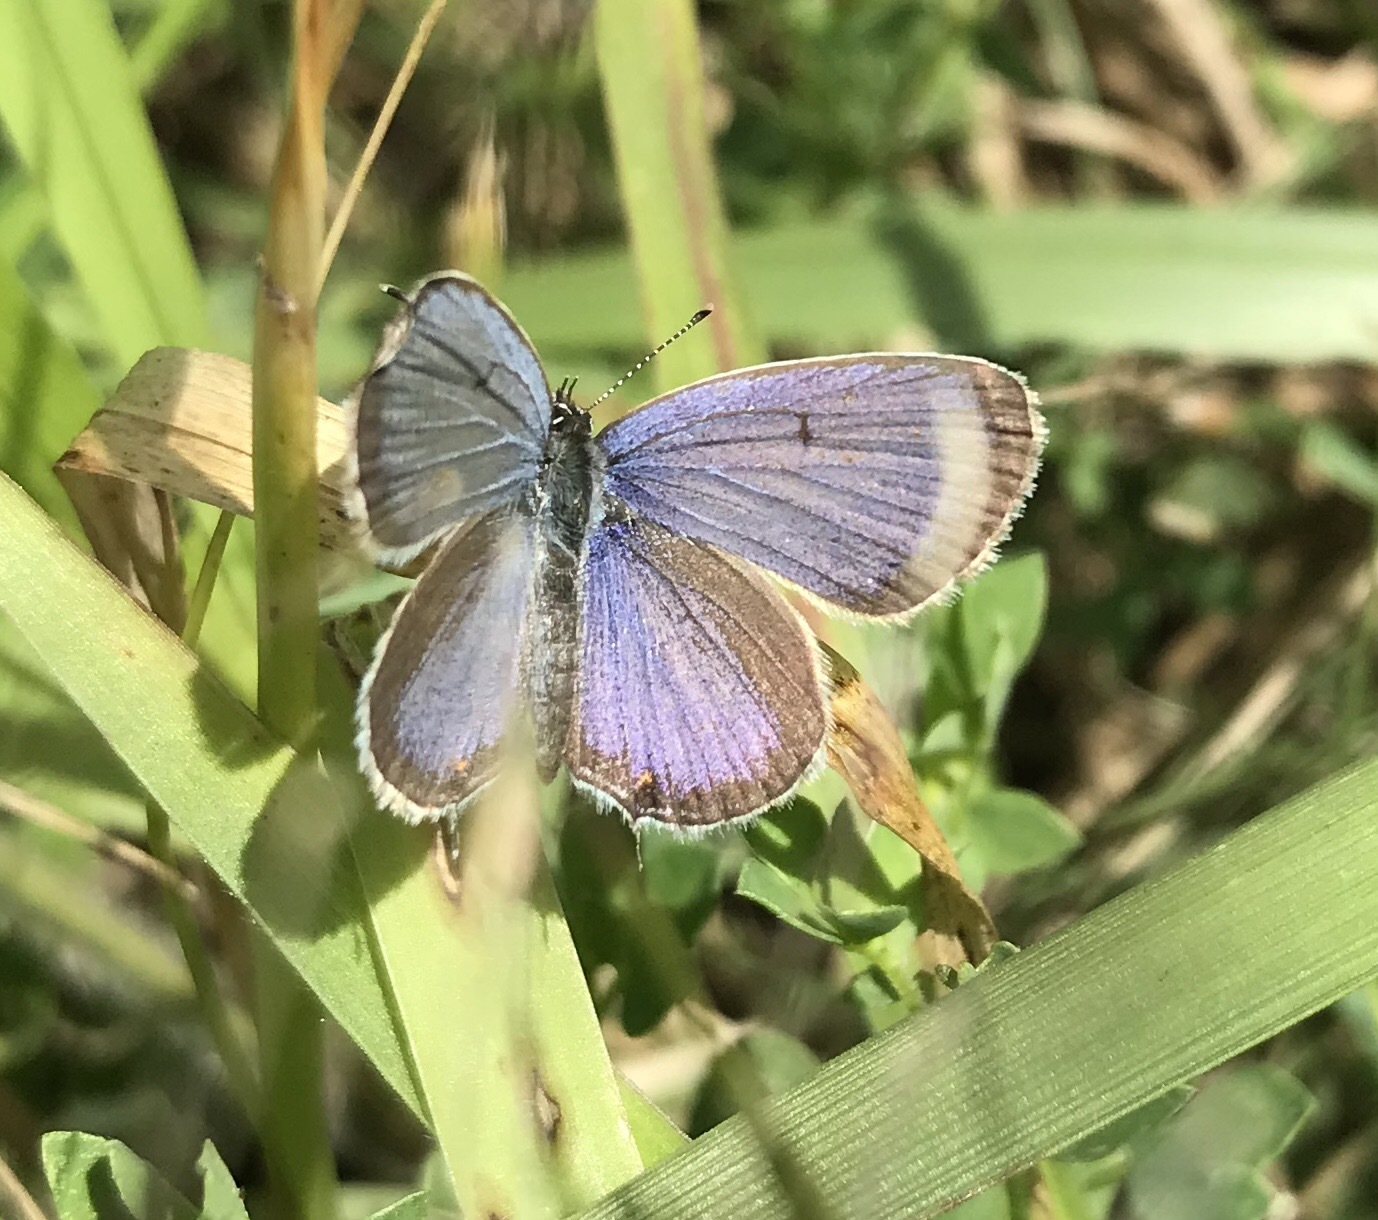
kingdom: Animalia
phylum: Arthropoda
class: Insecta
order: Lepidoptera
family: Lycaenidae
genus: Elkalyce
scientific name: Elkalyce comyntas
